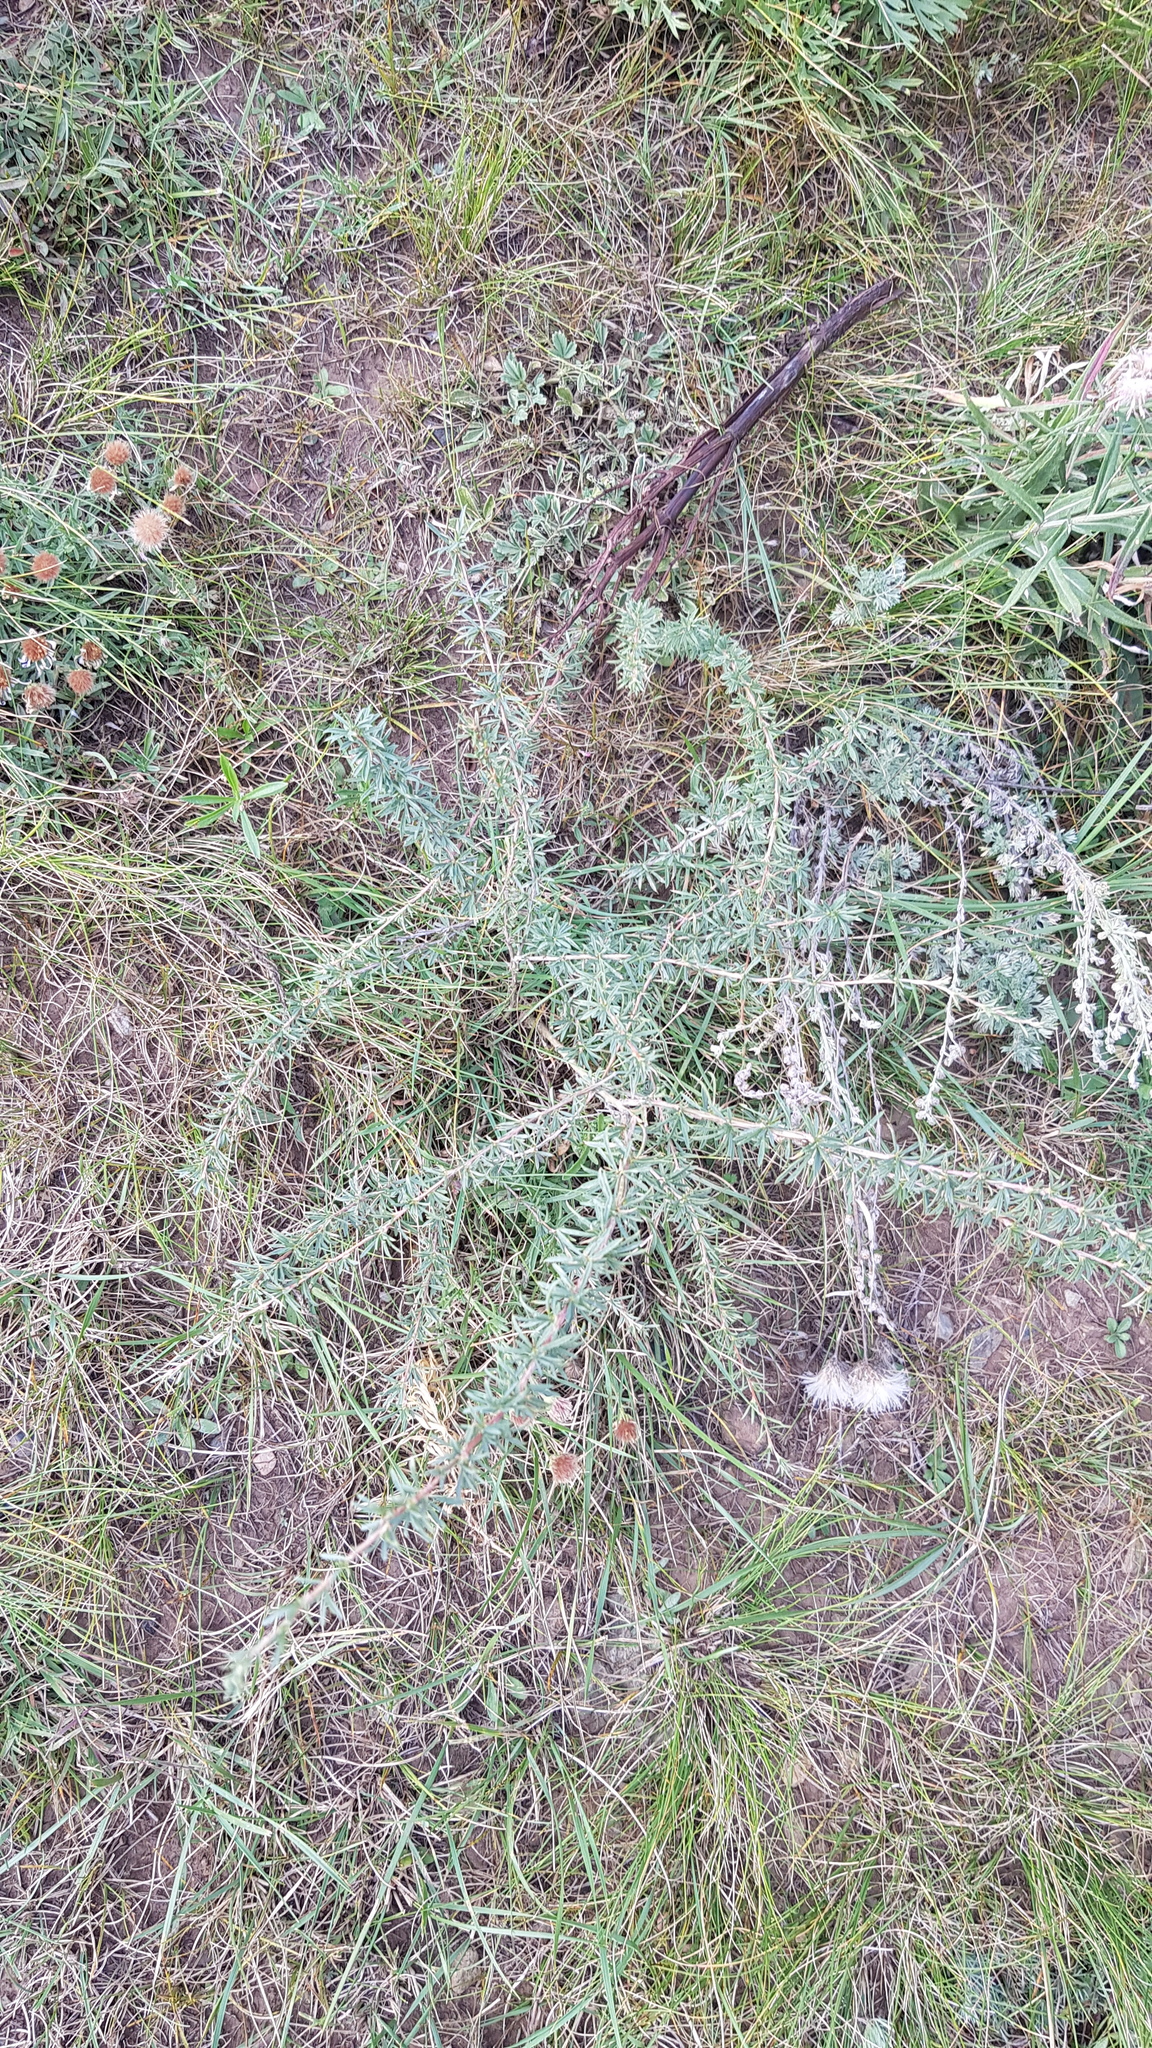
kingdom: Plantae
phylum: Tracheophyta
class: Magnoliopsida
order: Fabales
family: Fabaceae
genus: Caragana
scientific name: Caragana stenophylla
